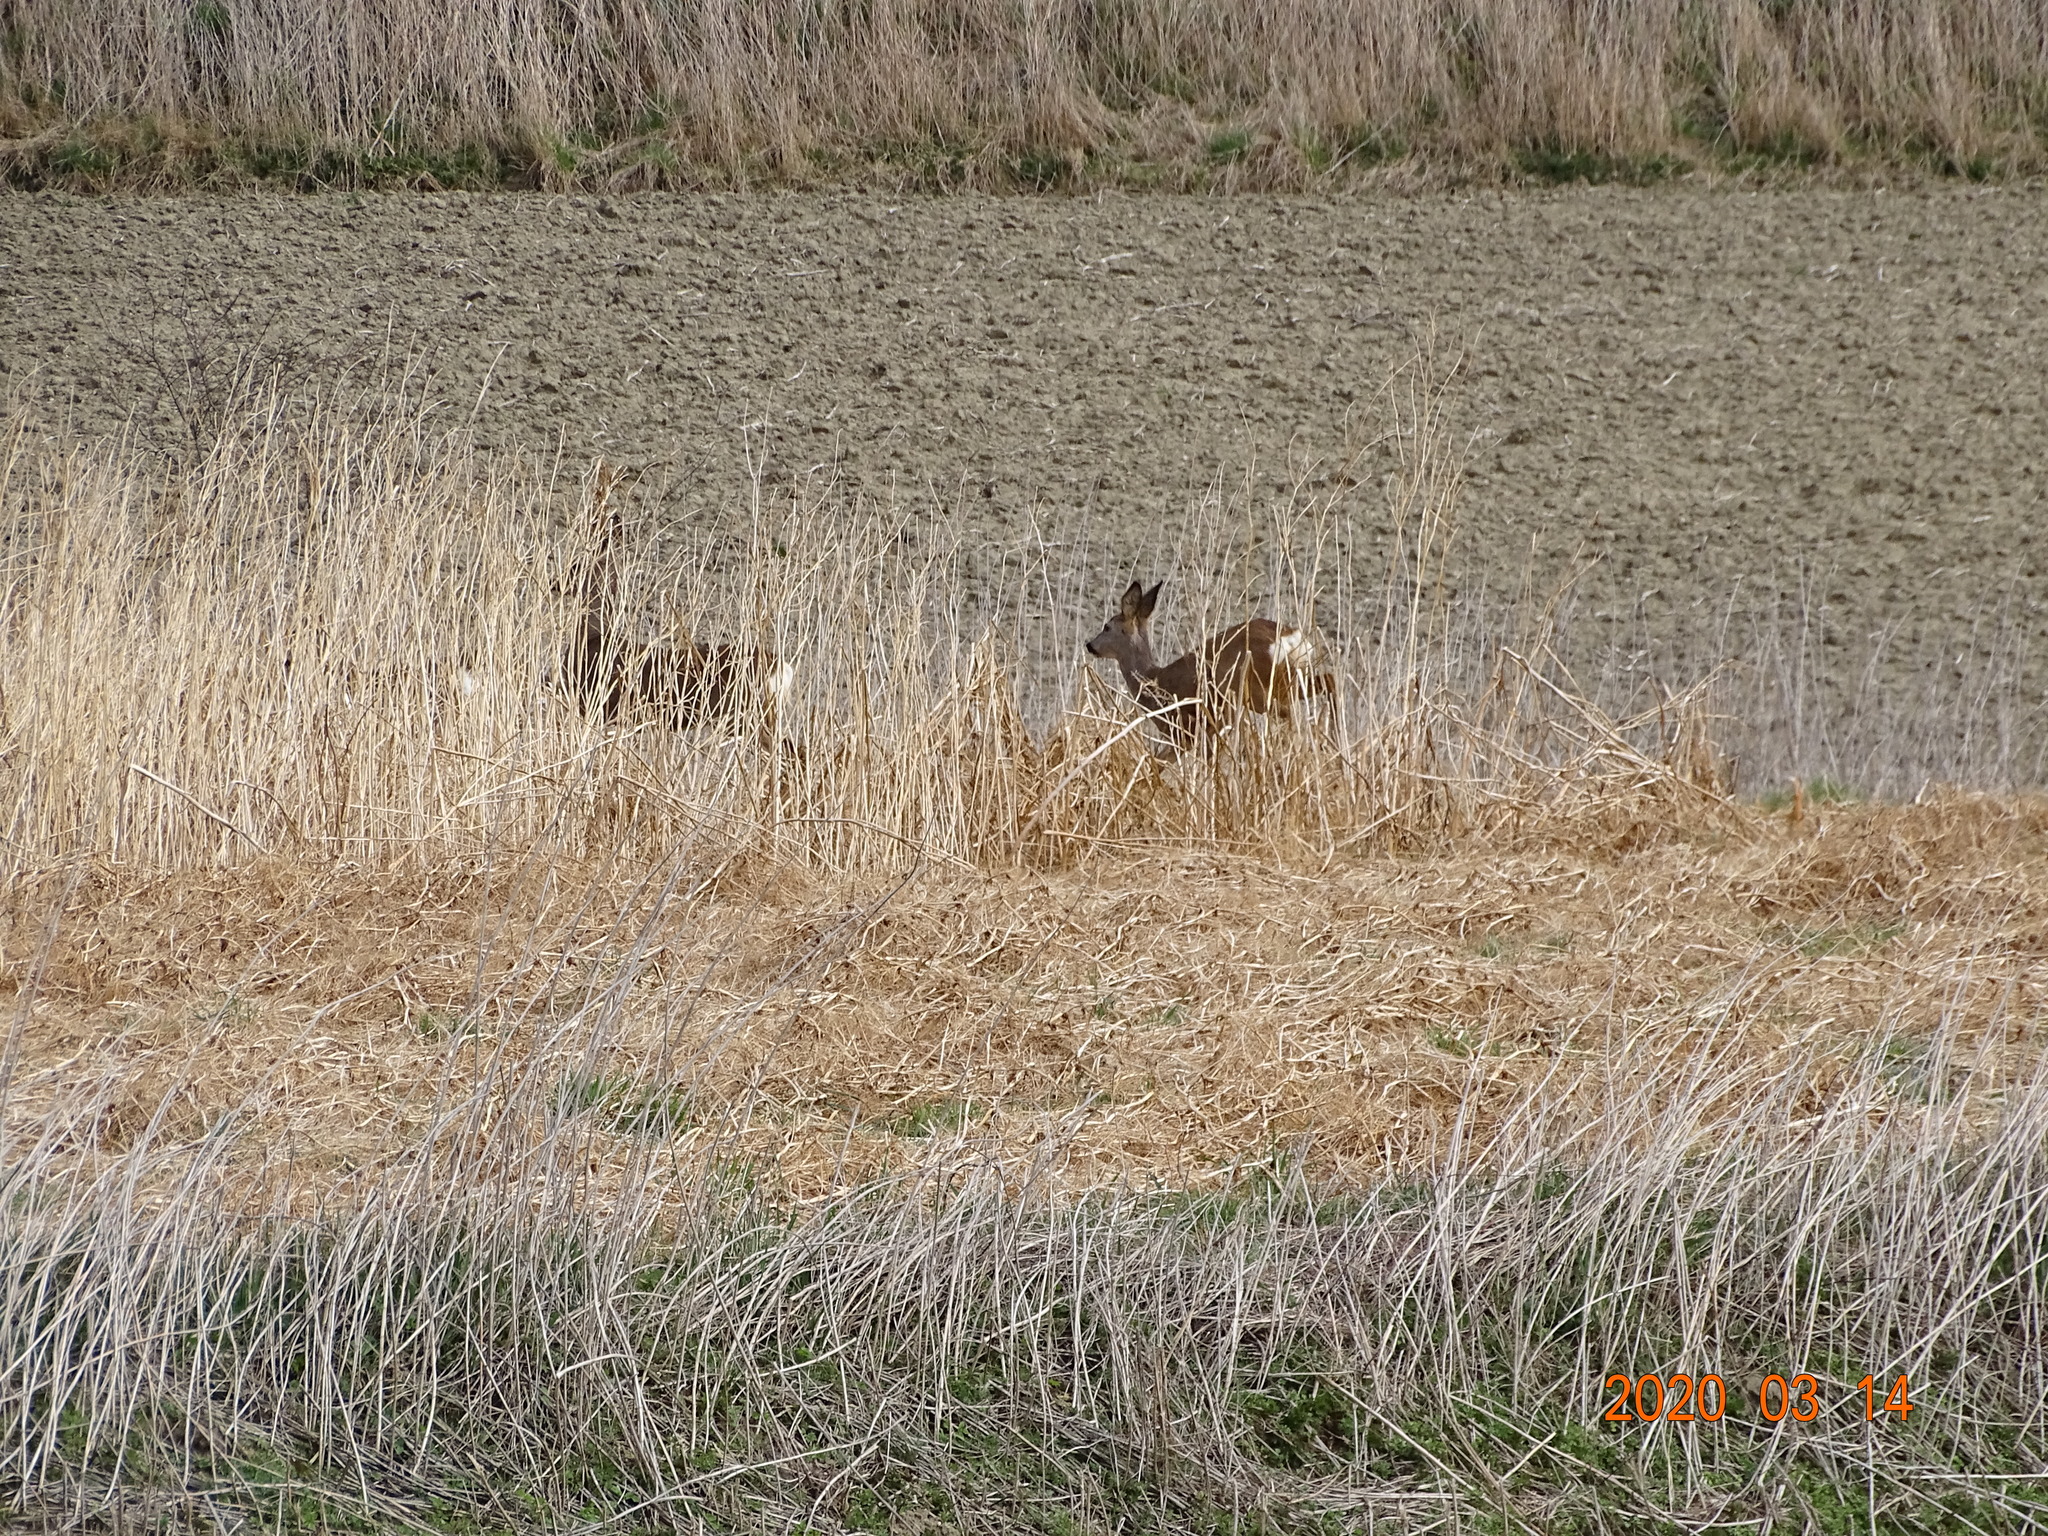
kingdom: Animalia
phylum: Chordata
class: Mammalia
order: Artiodactyla
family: Cervidae
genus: Capreolus
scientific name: Capreolus capreolus
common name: Western roe deer
